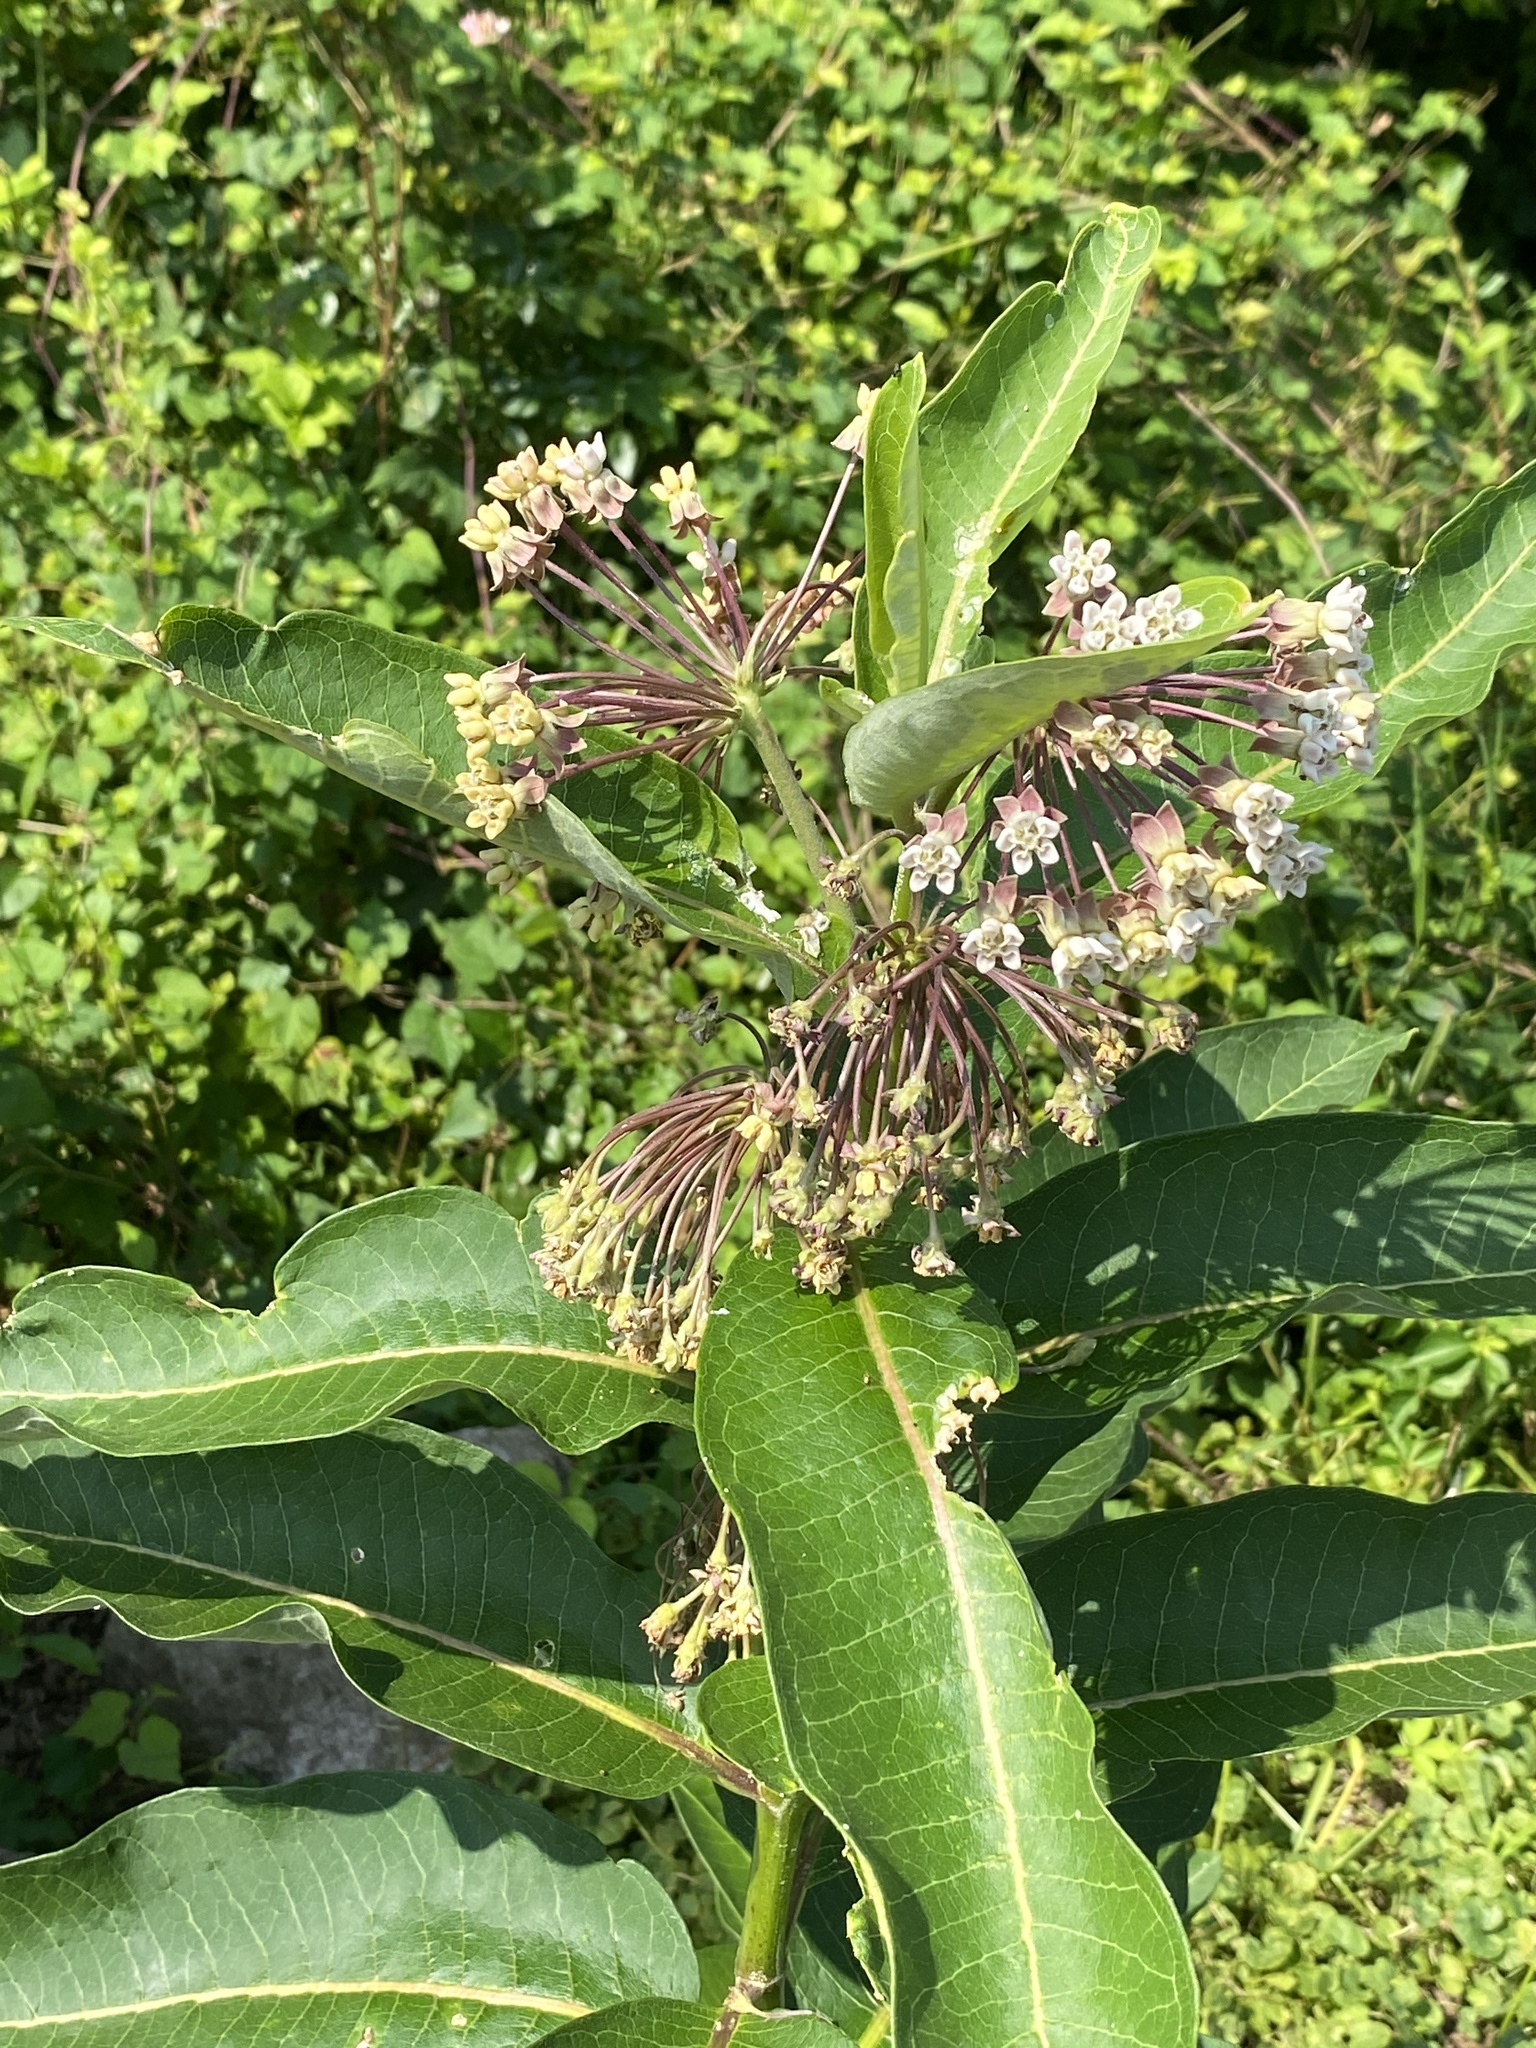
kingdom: Plantae
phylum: Tracheophyta
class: Magnoliopsida
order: Gentianales
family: Apocynaceae
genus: Asclepias
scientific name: Asclepias syriaca
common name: Common milkweed
